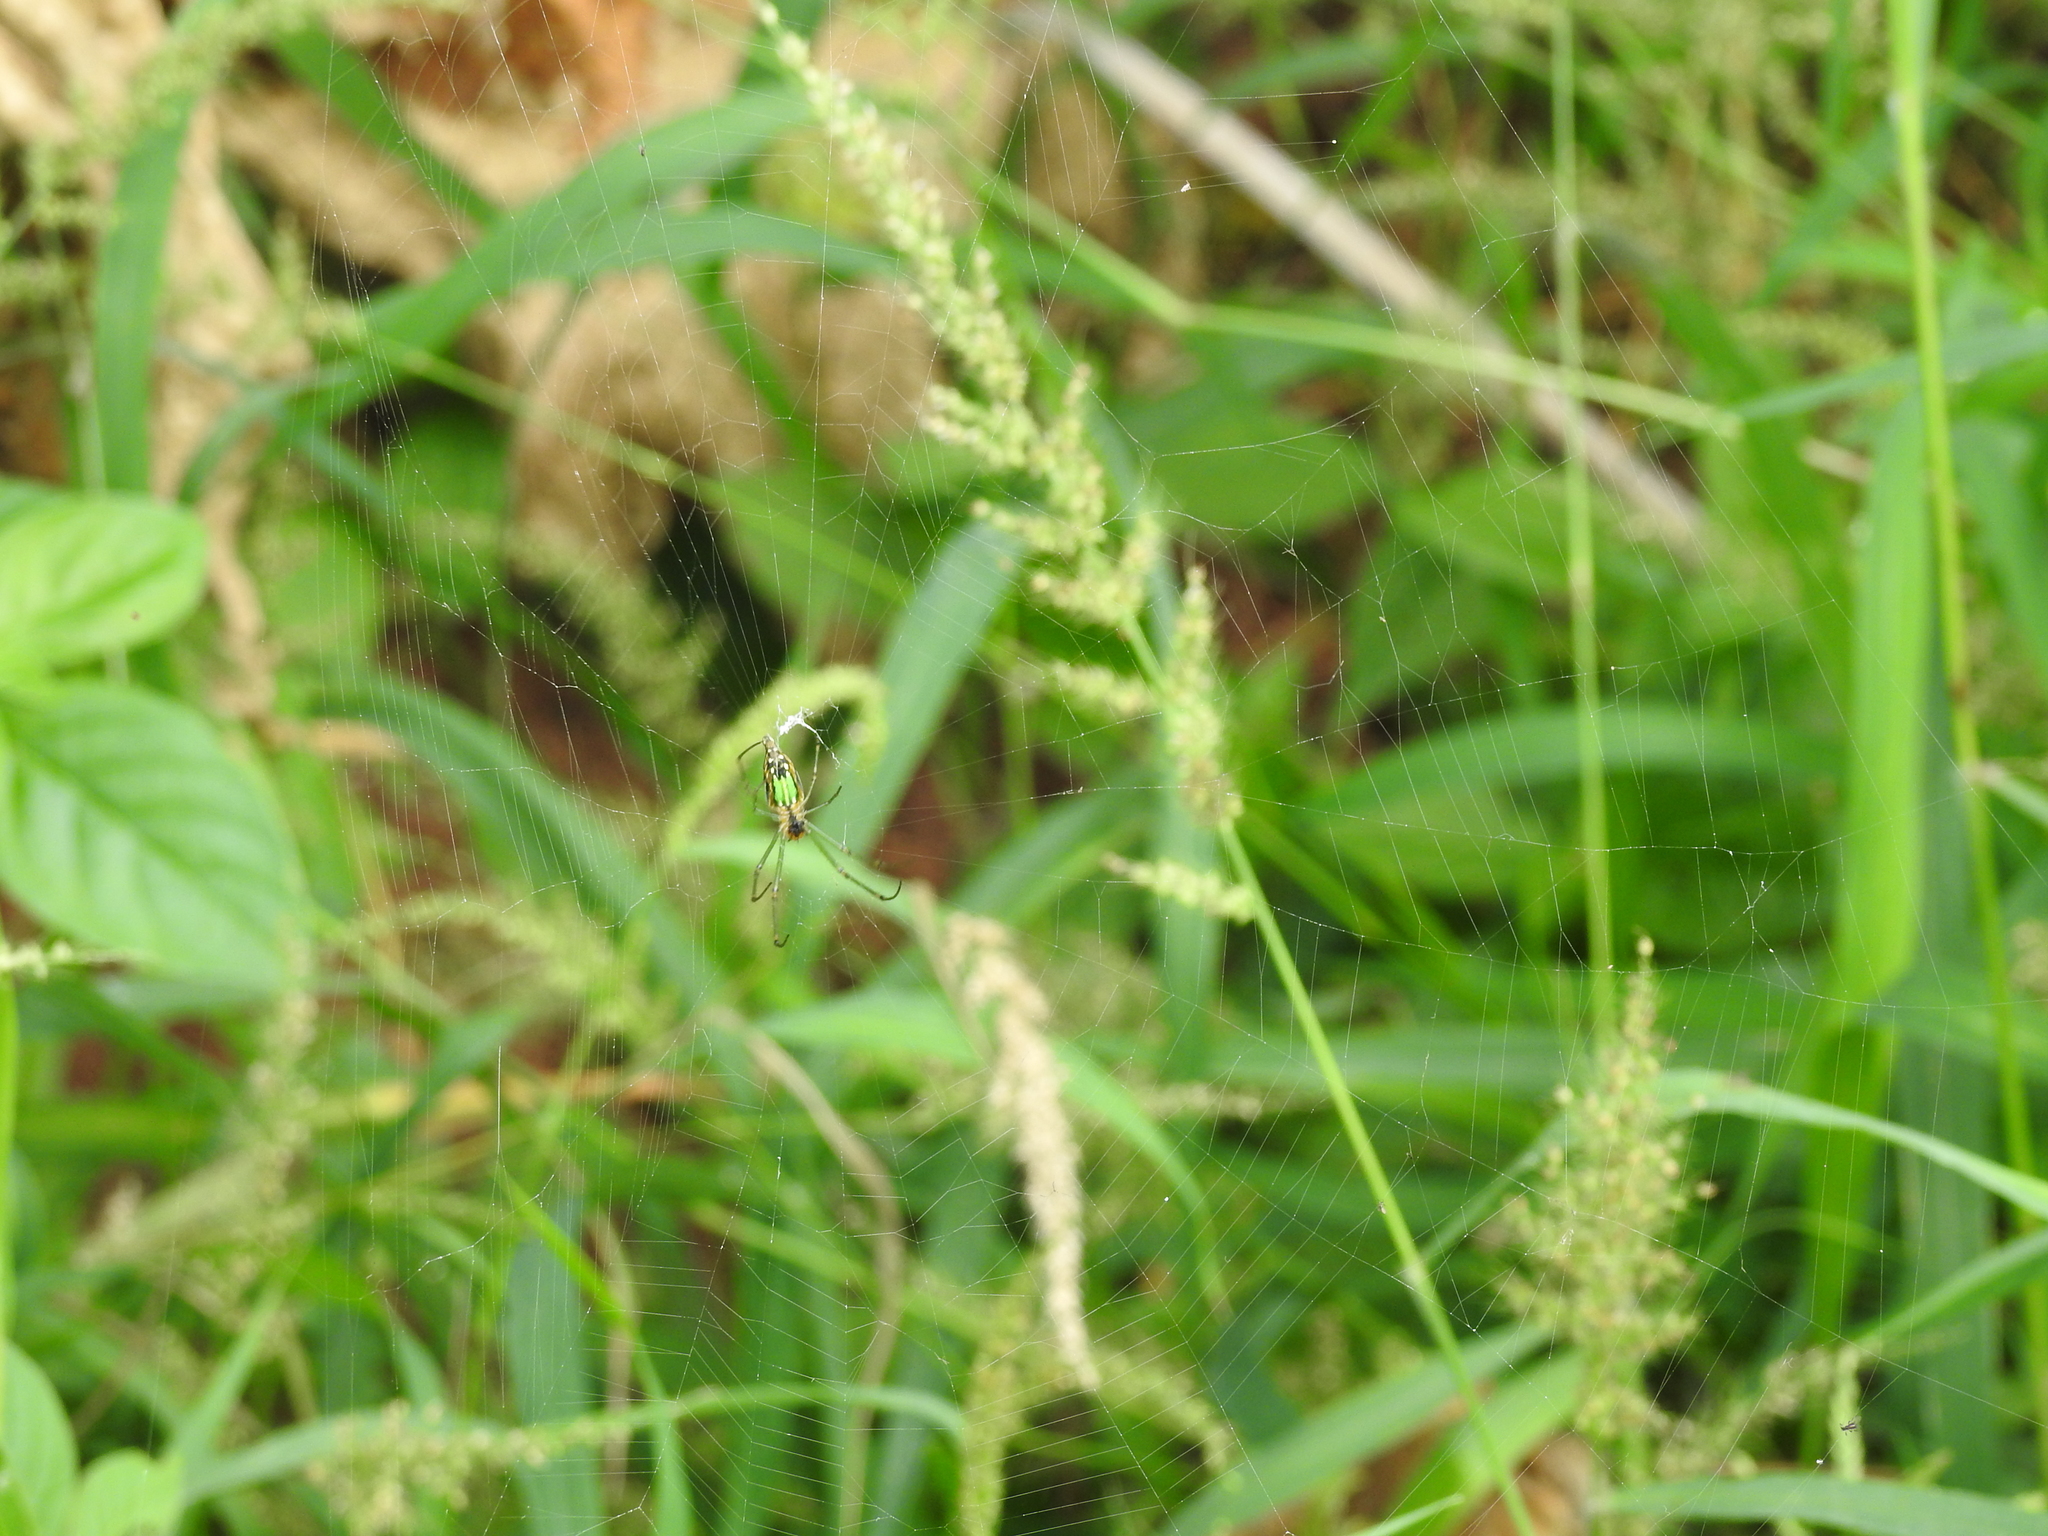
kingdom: Animalia
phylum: Arthropoda
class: Arachnida
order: Araneae
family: Tetragnathidae
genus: Leucauge
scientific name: Leucauge decorata
